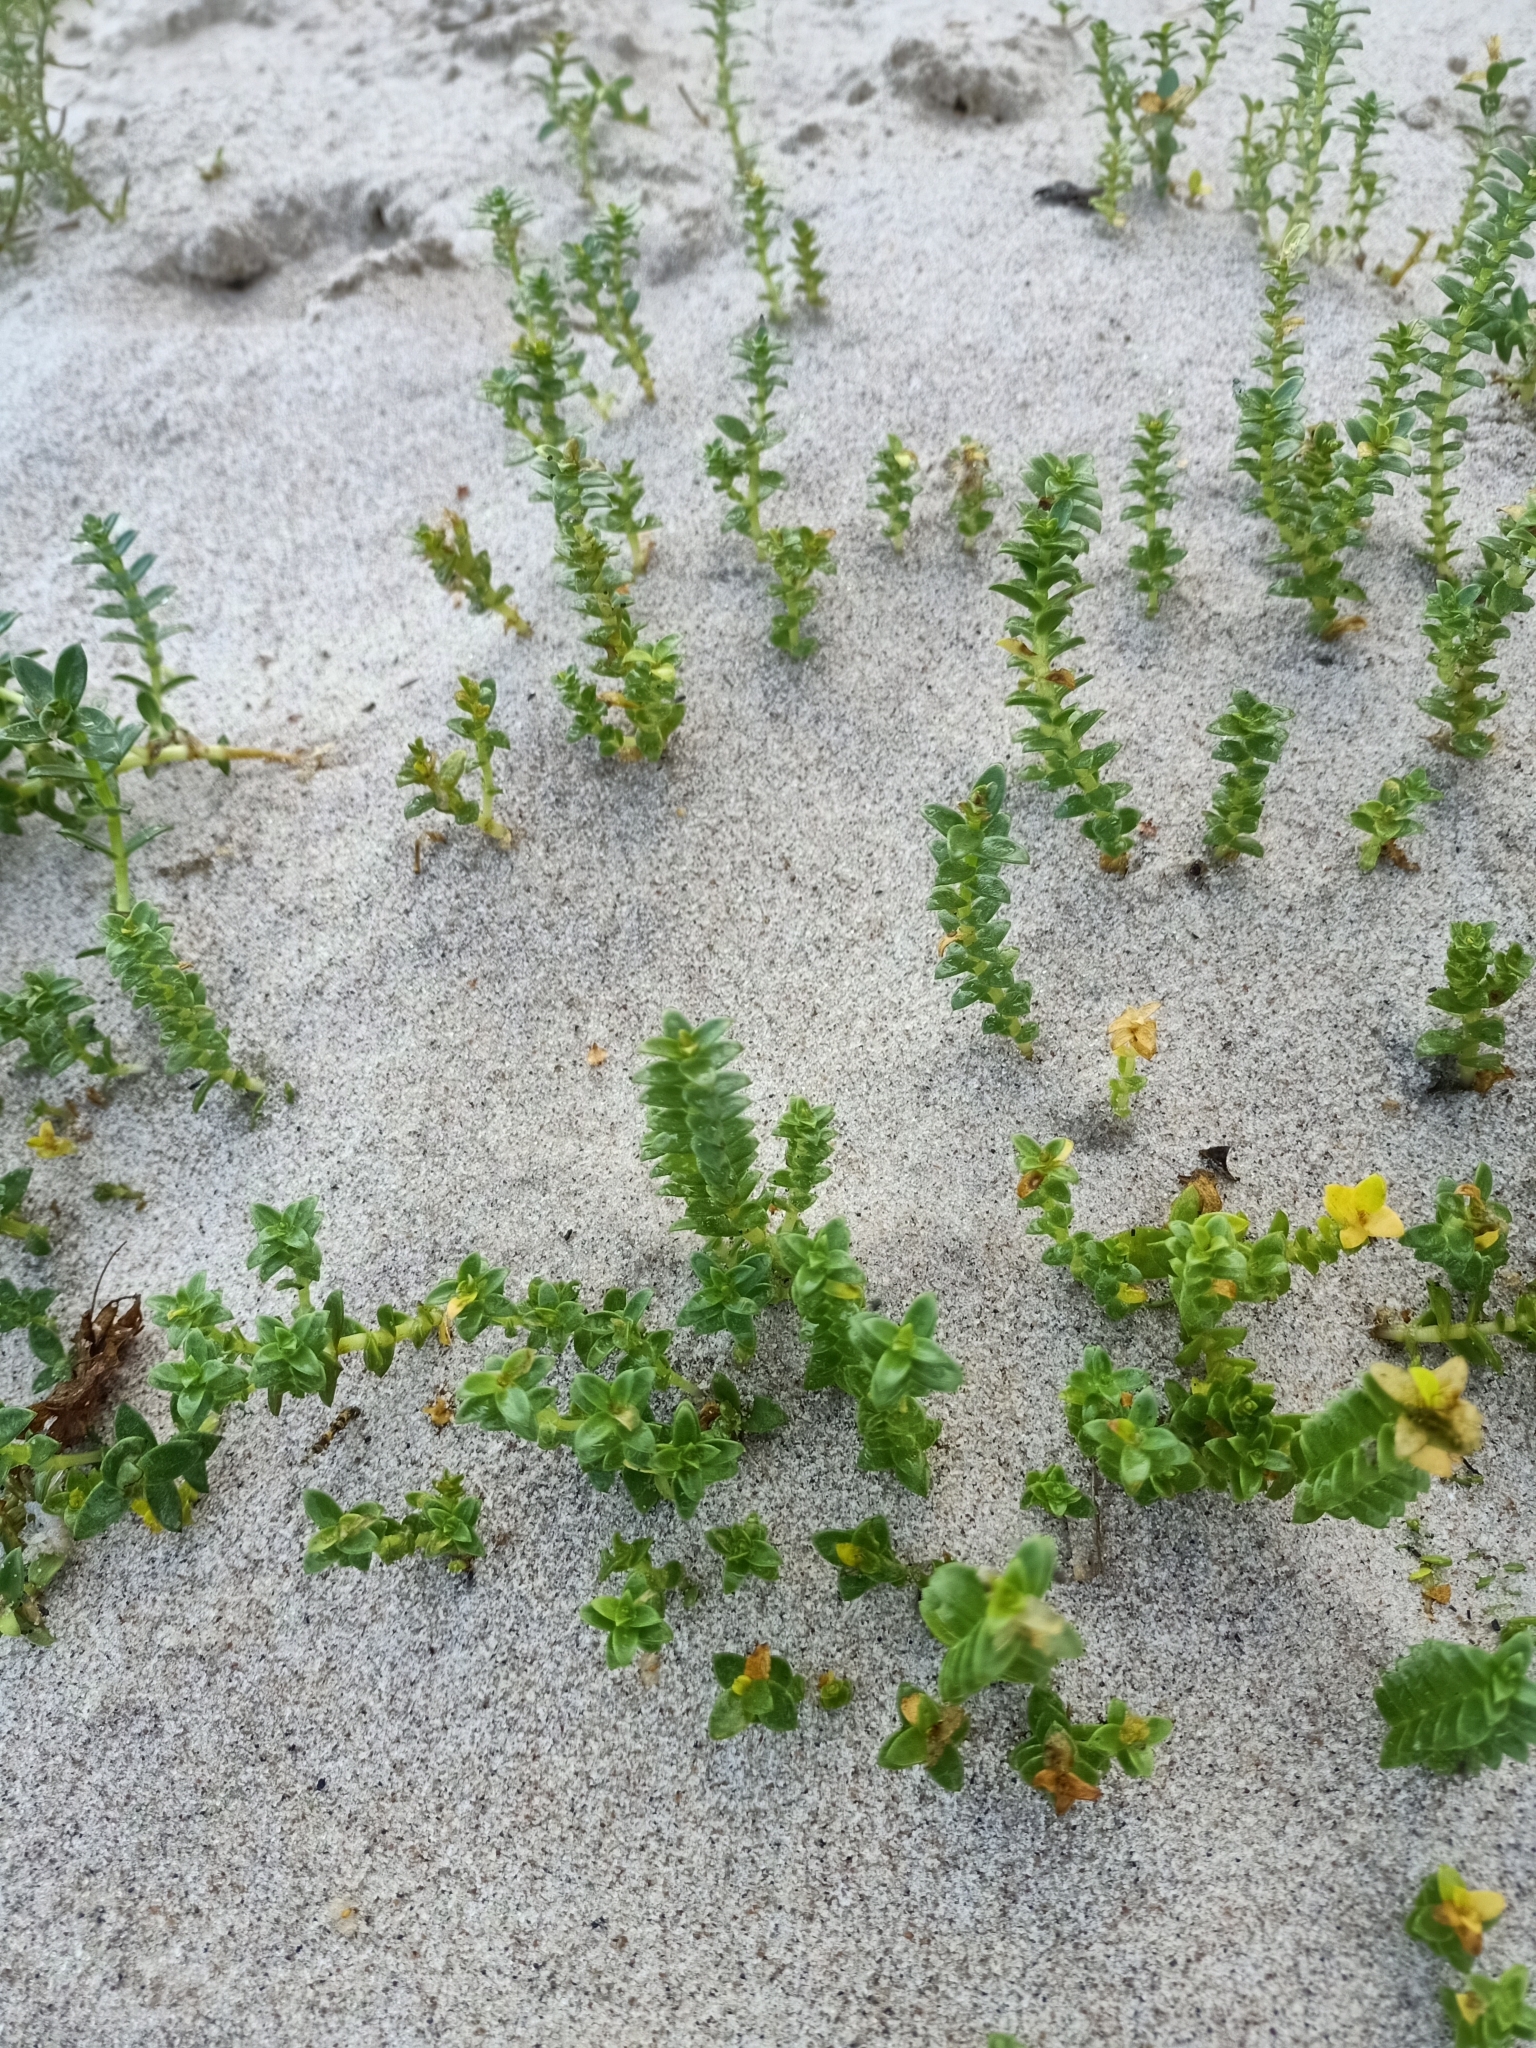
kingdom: Plantae
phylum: Tracheophyta
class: Magnoliopsida
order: Caryophyllales
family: Caryophyllaceae
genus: Honckenya
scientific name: Honckenya peploides
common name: Sea sandwort
